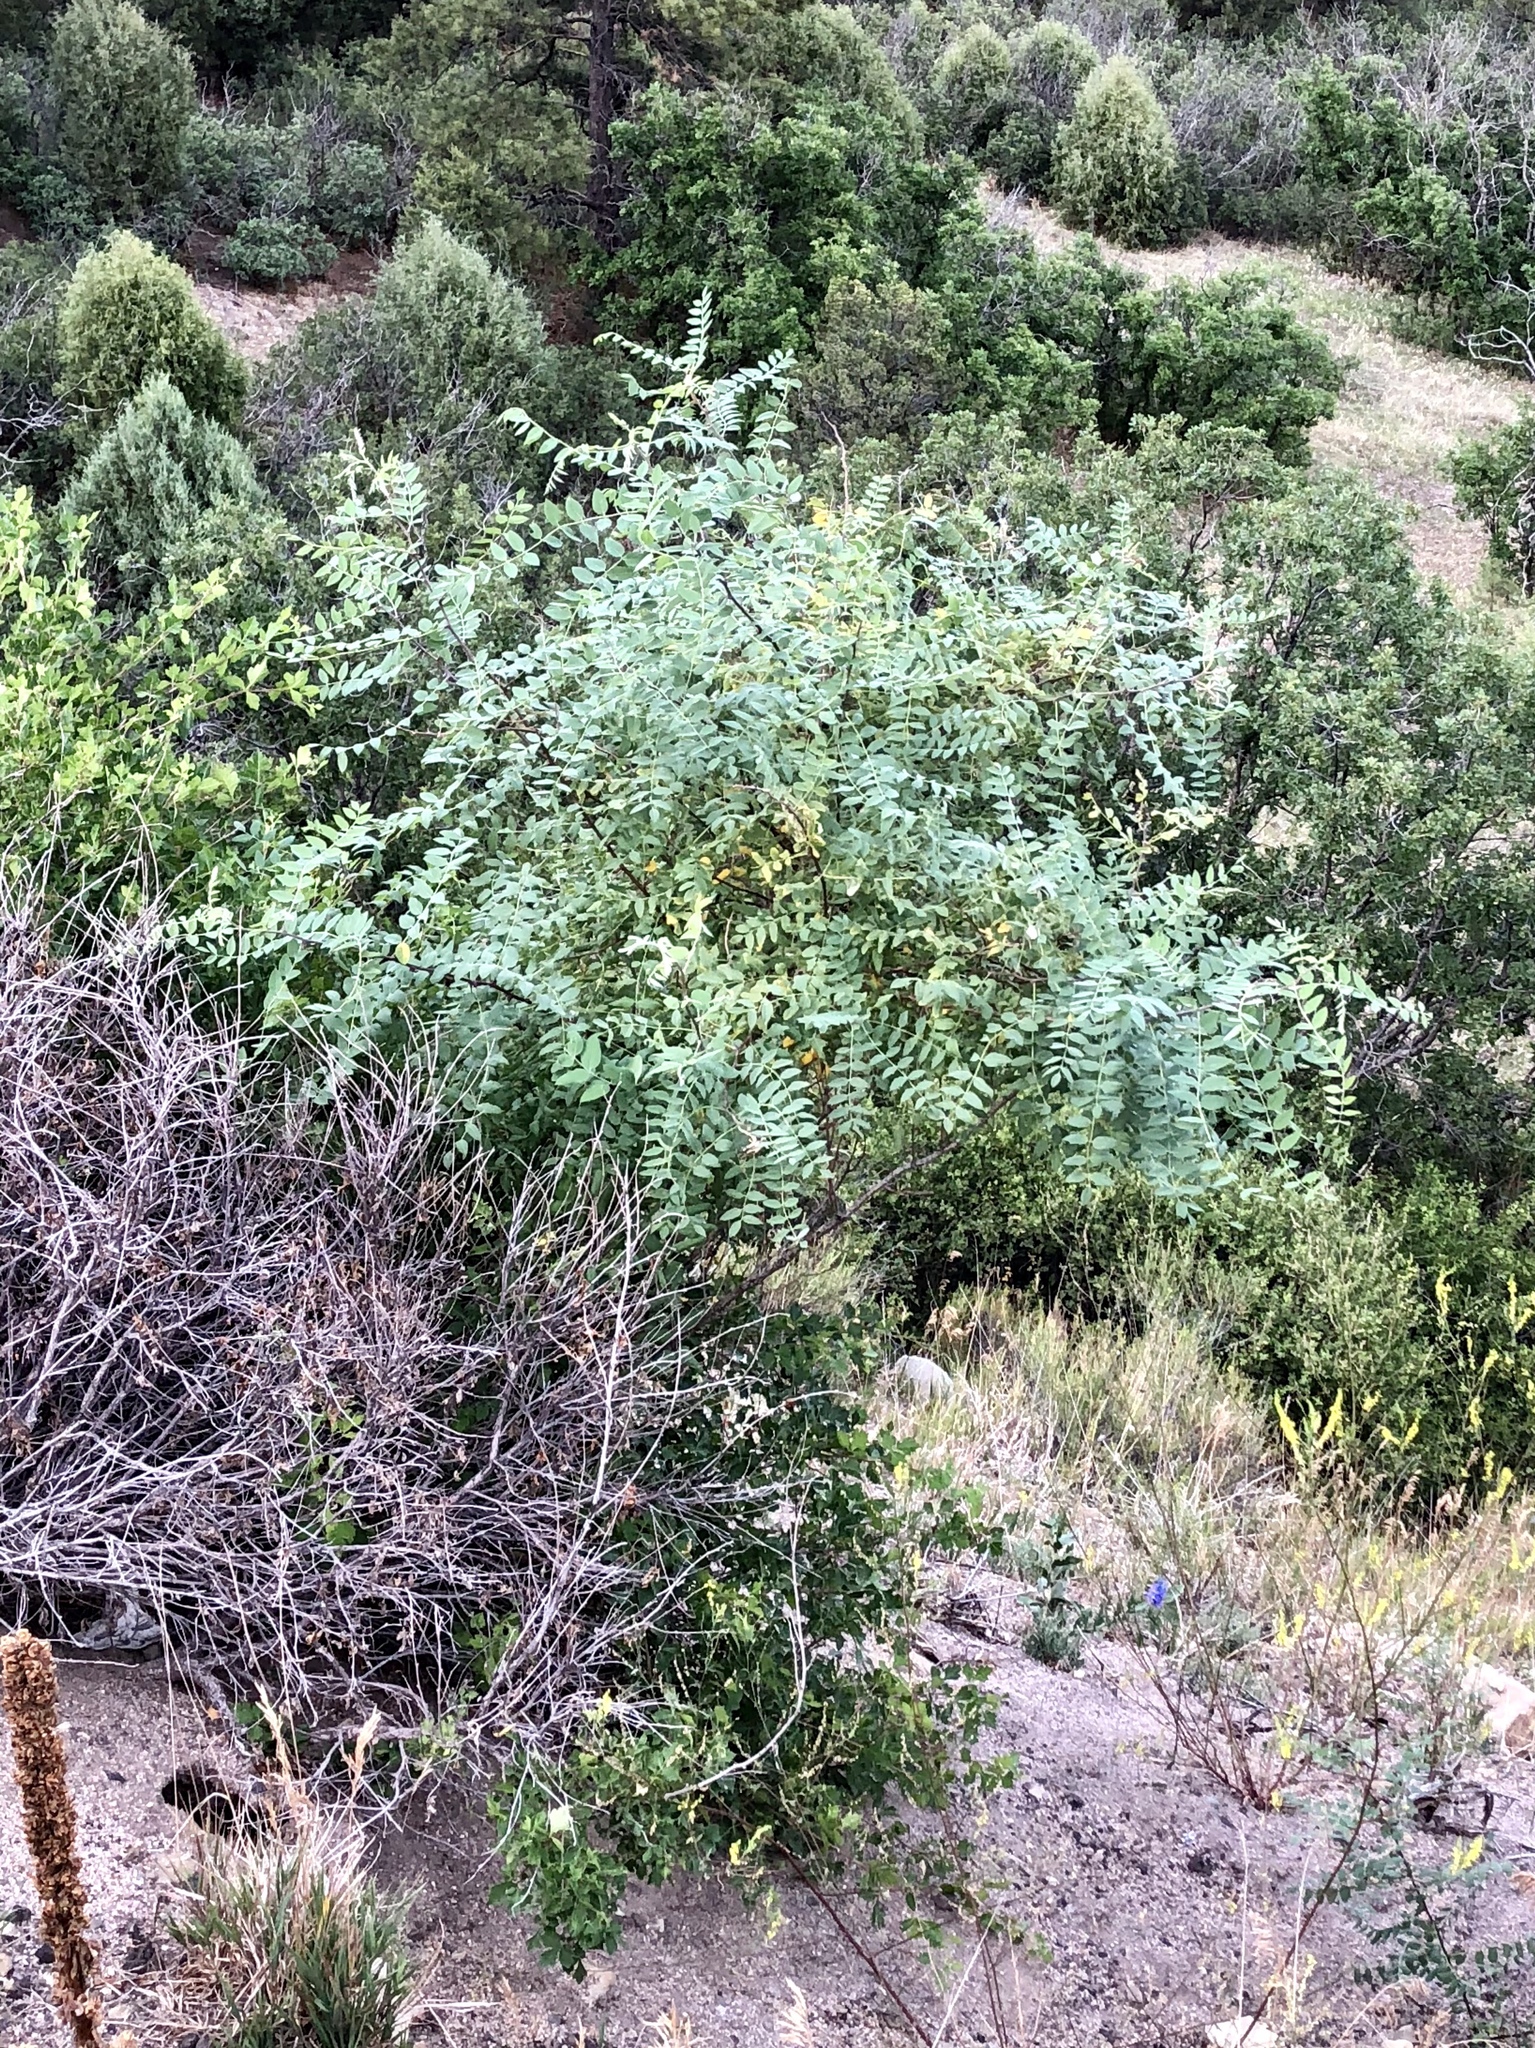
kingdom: Plantae
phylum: Tracheophyta
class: Magnoliopsida
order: Fabales
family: Fabaceae
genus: Robinia
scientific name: Robinia neomexicana
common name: New mexico locust
